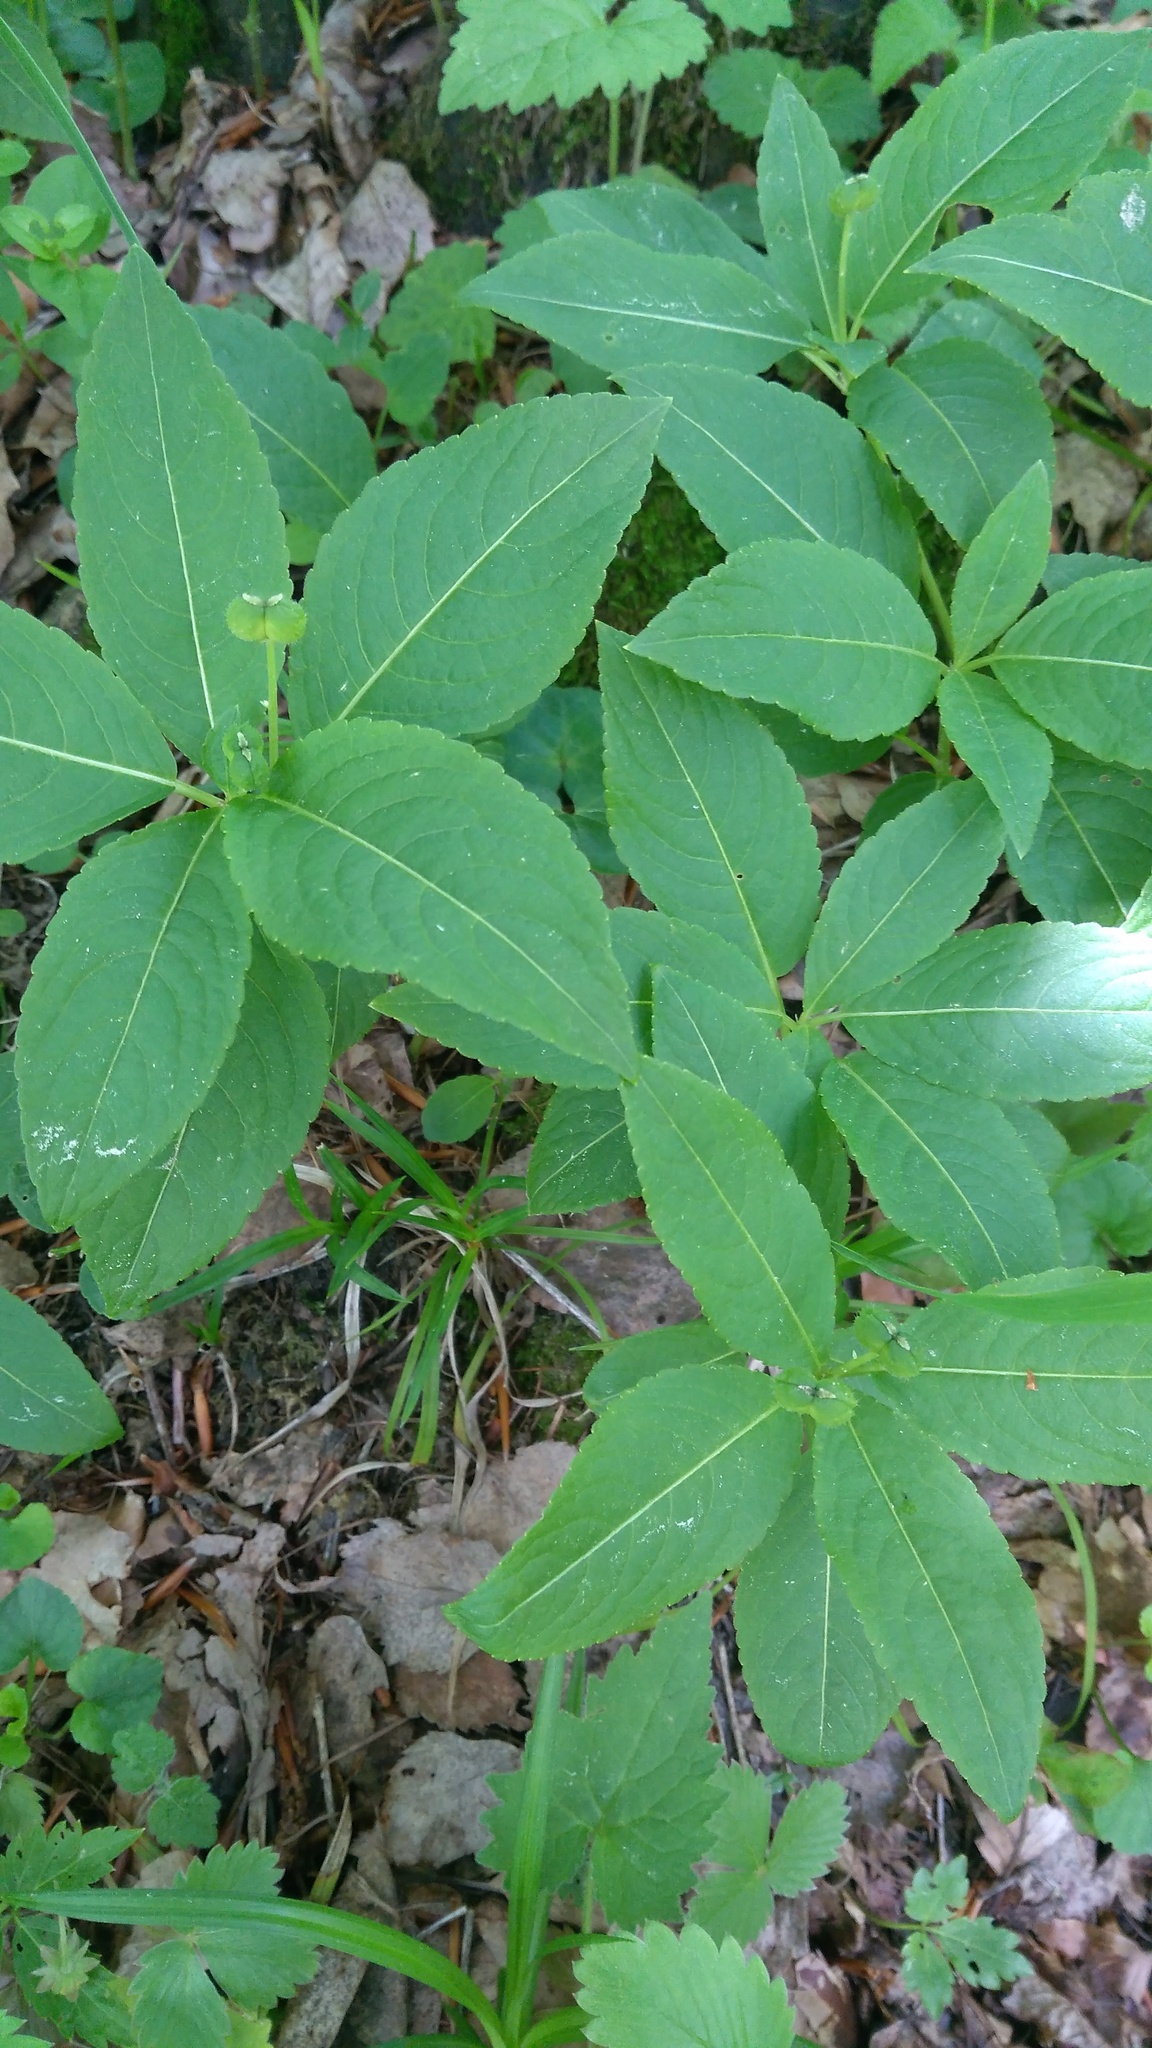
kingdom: Plantae
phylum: Tracheophyta
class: Magnoliopsida
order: Malpighiales
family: Euphorbiaceae
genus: Mercurialis
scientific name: Mercurialis perennis
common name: Dog mercury
